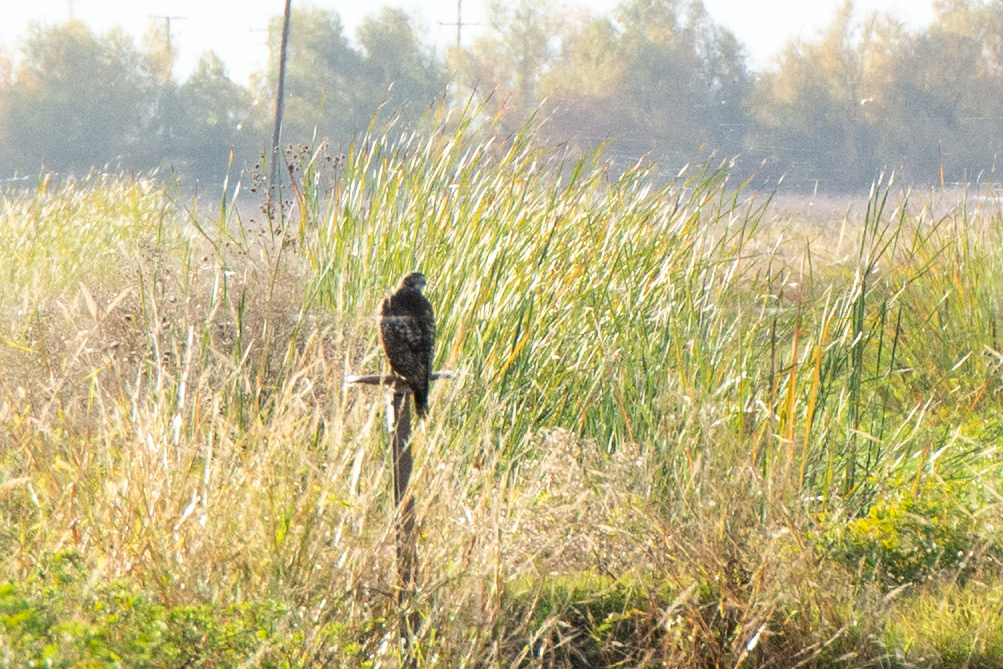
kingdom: Animalia
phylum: Chordata
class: Aves
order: Accipitriformes
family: Accipitridae
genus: Buteo
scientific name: Buteo jamaicensis
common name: Red-tailed hawk
